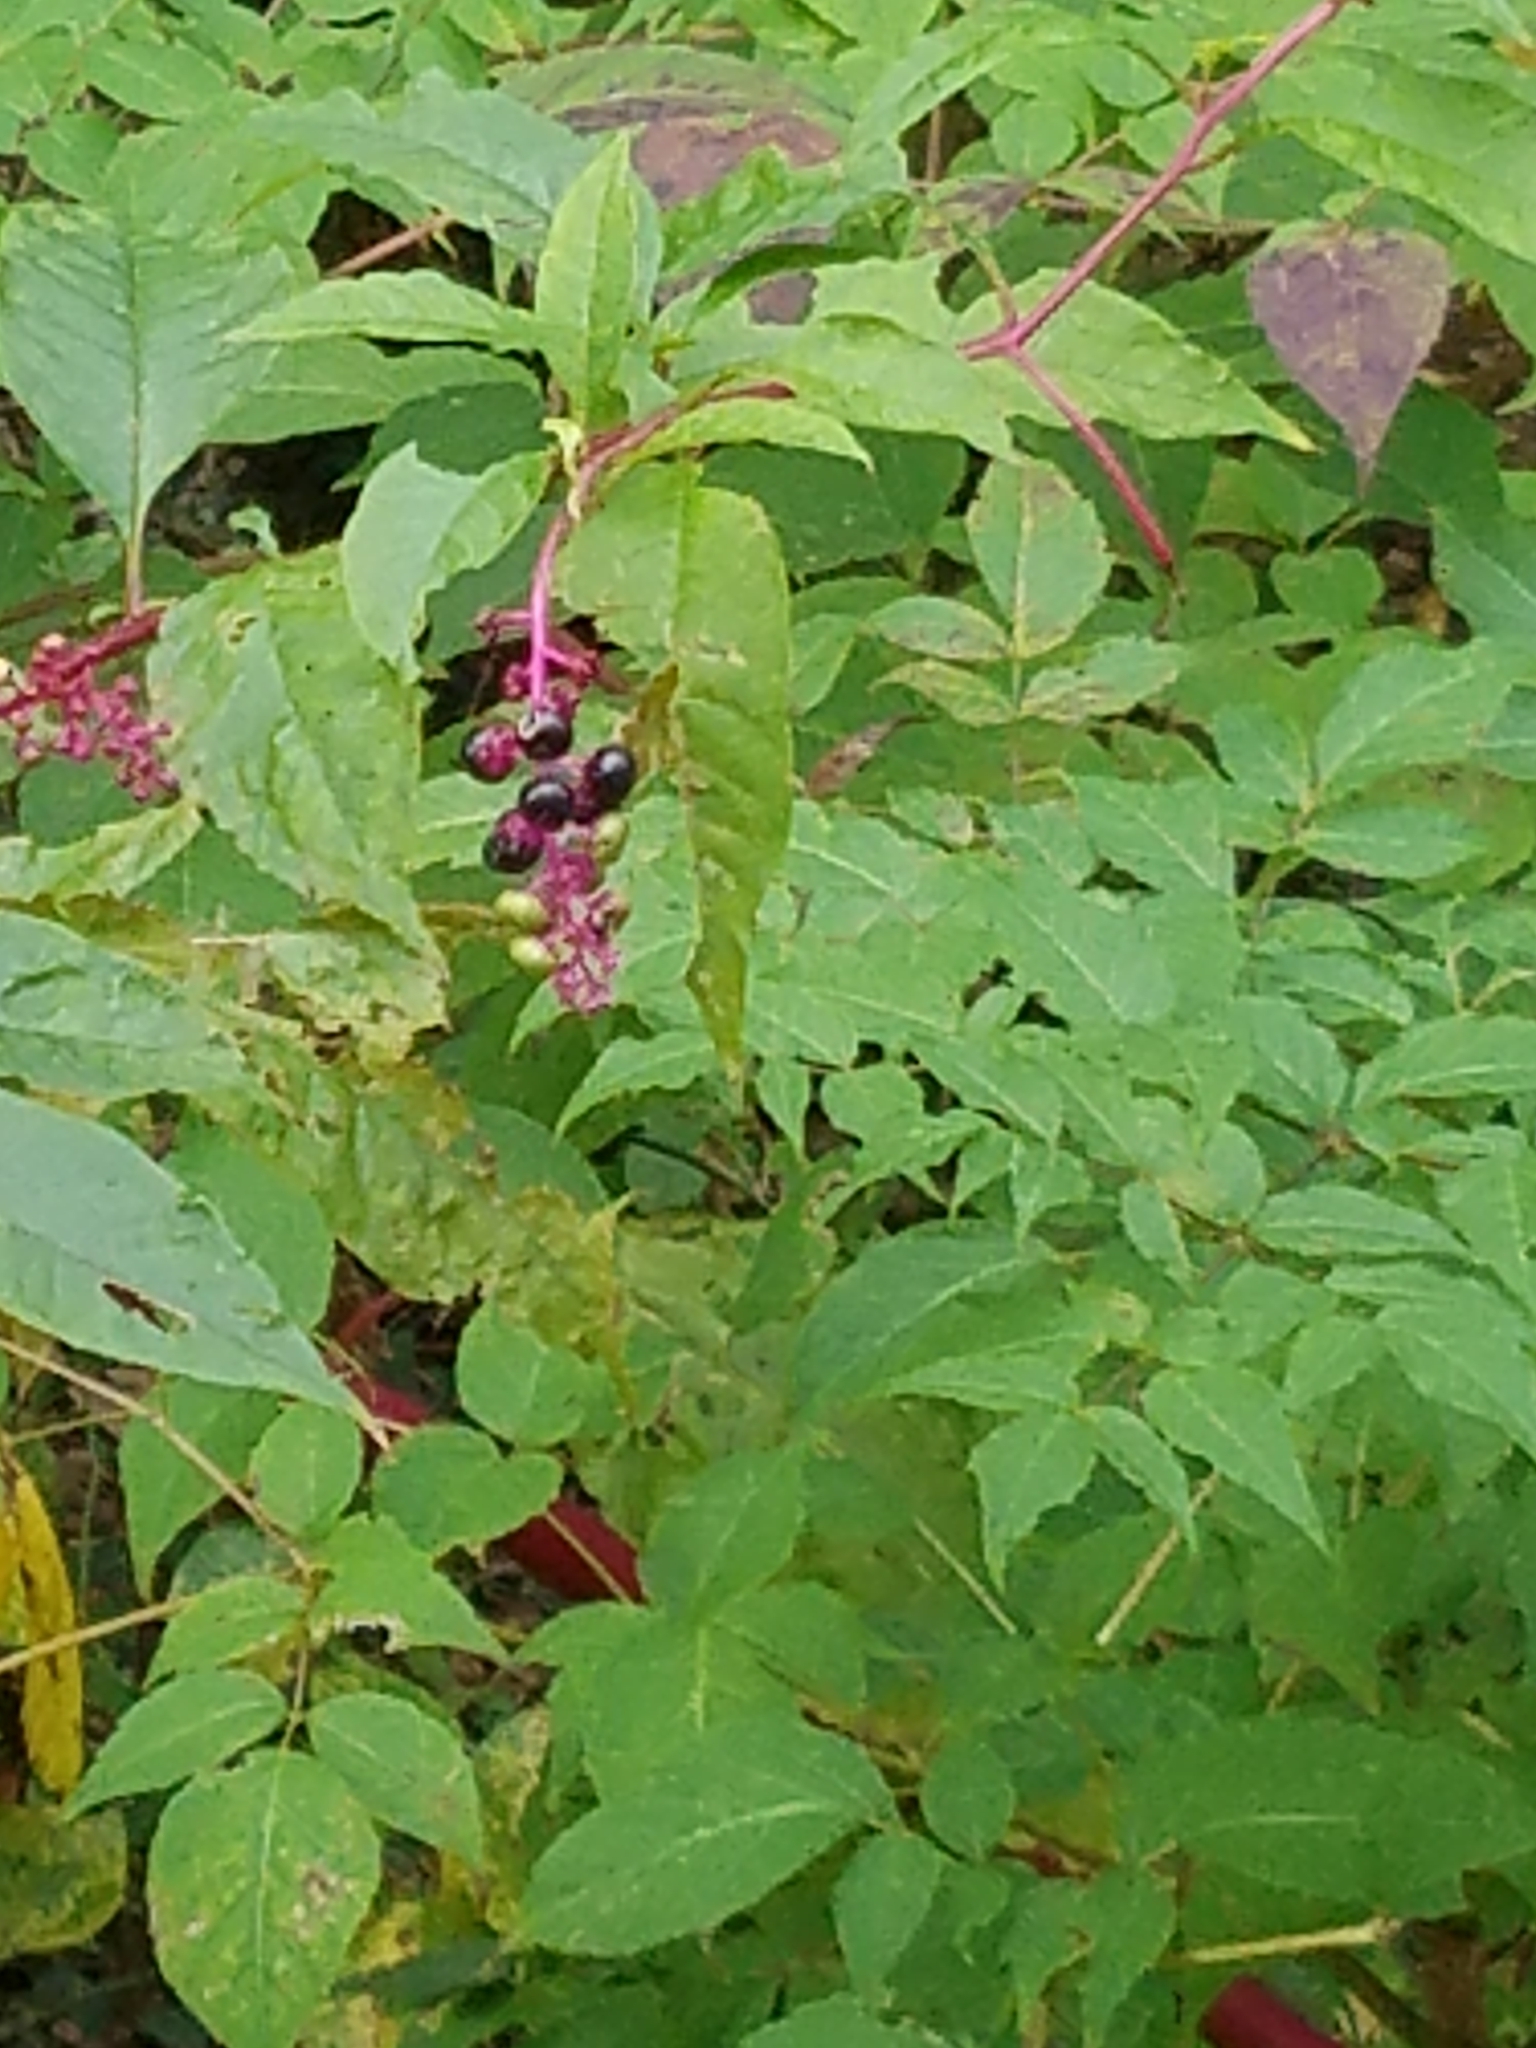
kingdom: Plantae
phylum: Tracheophyta
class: Magnoliopsida
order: Caryophyllales
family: Phytolaccaceae
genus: Phytolacca
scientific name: Phytolacca americana
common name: American pokeweed
